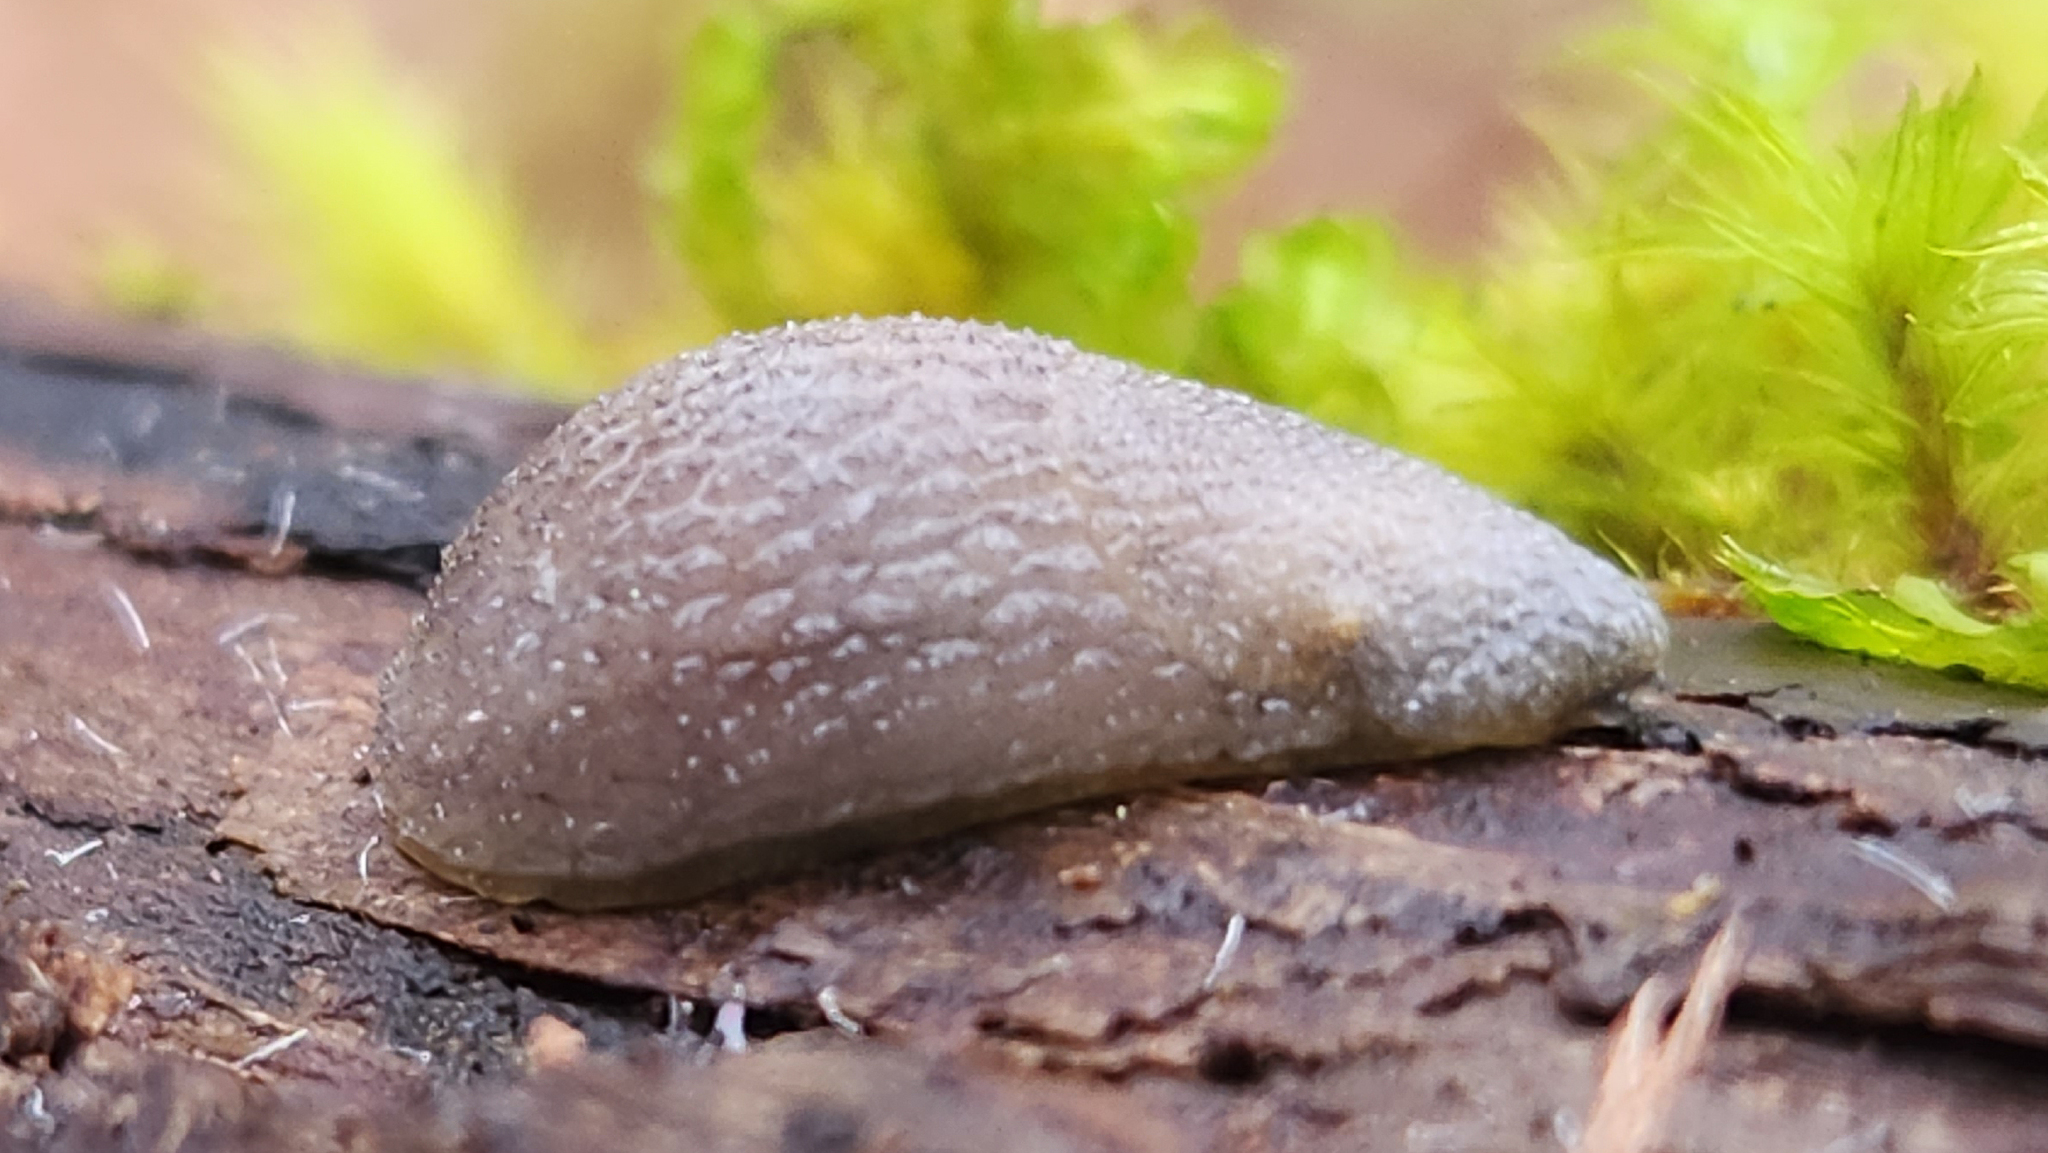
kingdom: Animalia
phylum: Mollusca
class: Gastropoda
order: Stylommatophora
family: Arionidae
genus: Arion
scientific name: Arion intermedius
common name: Hedgehog slug
